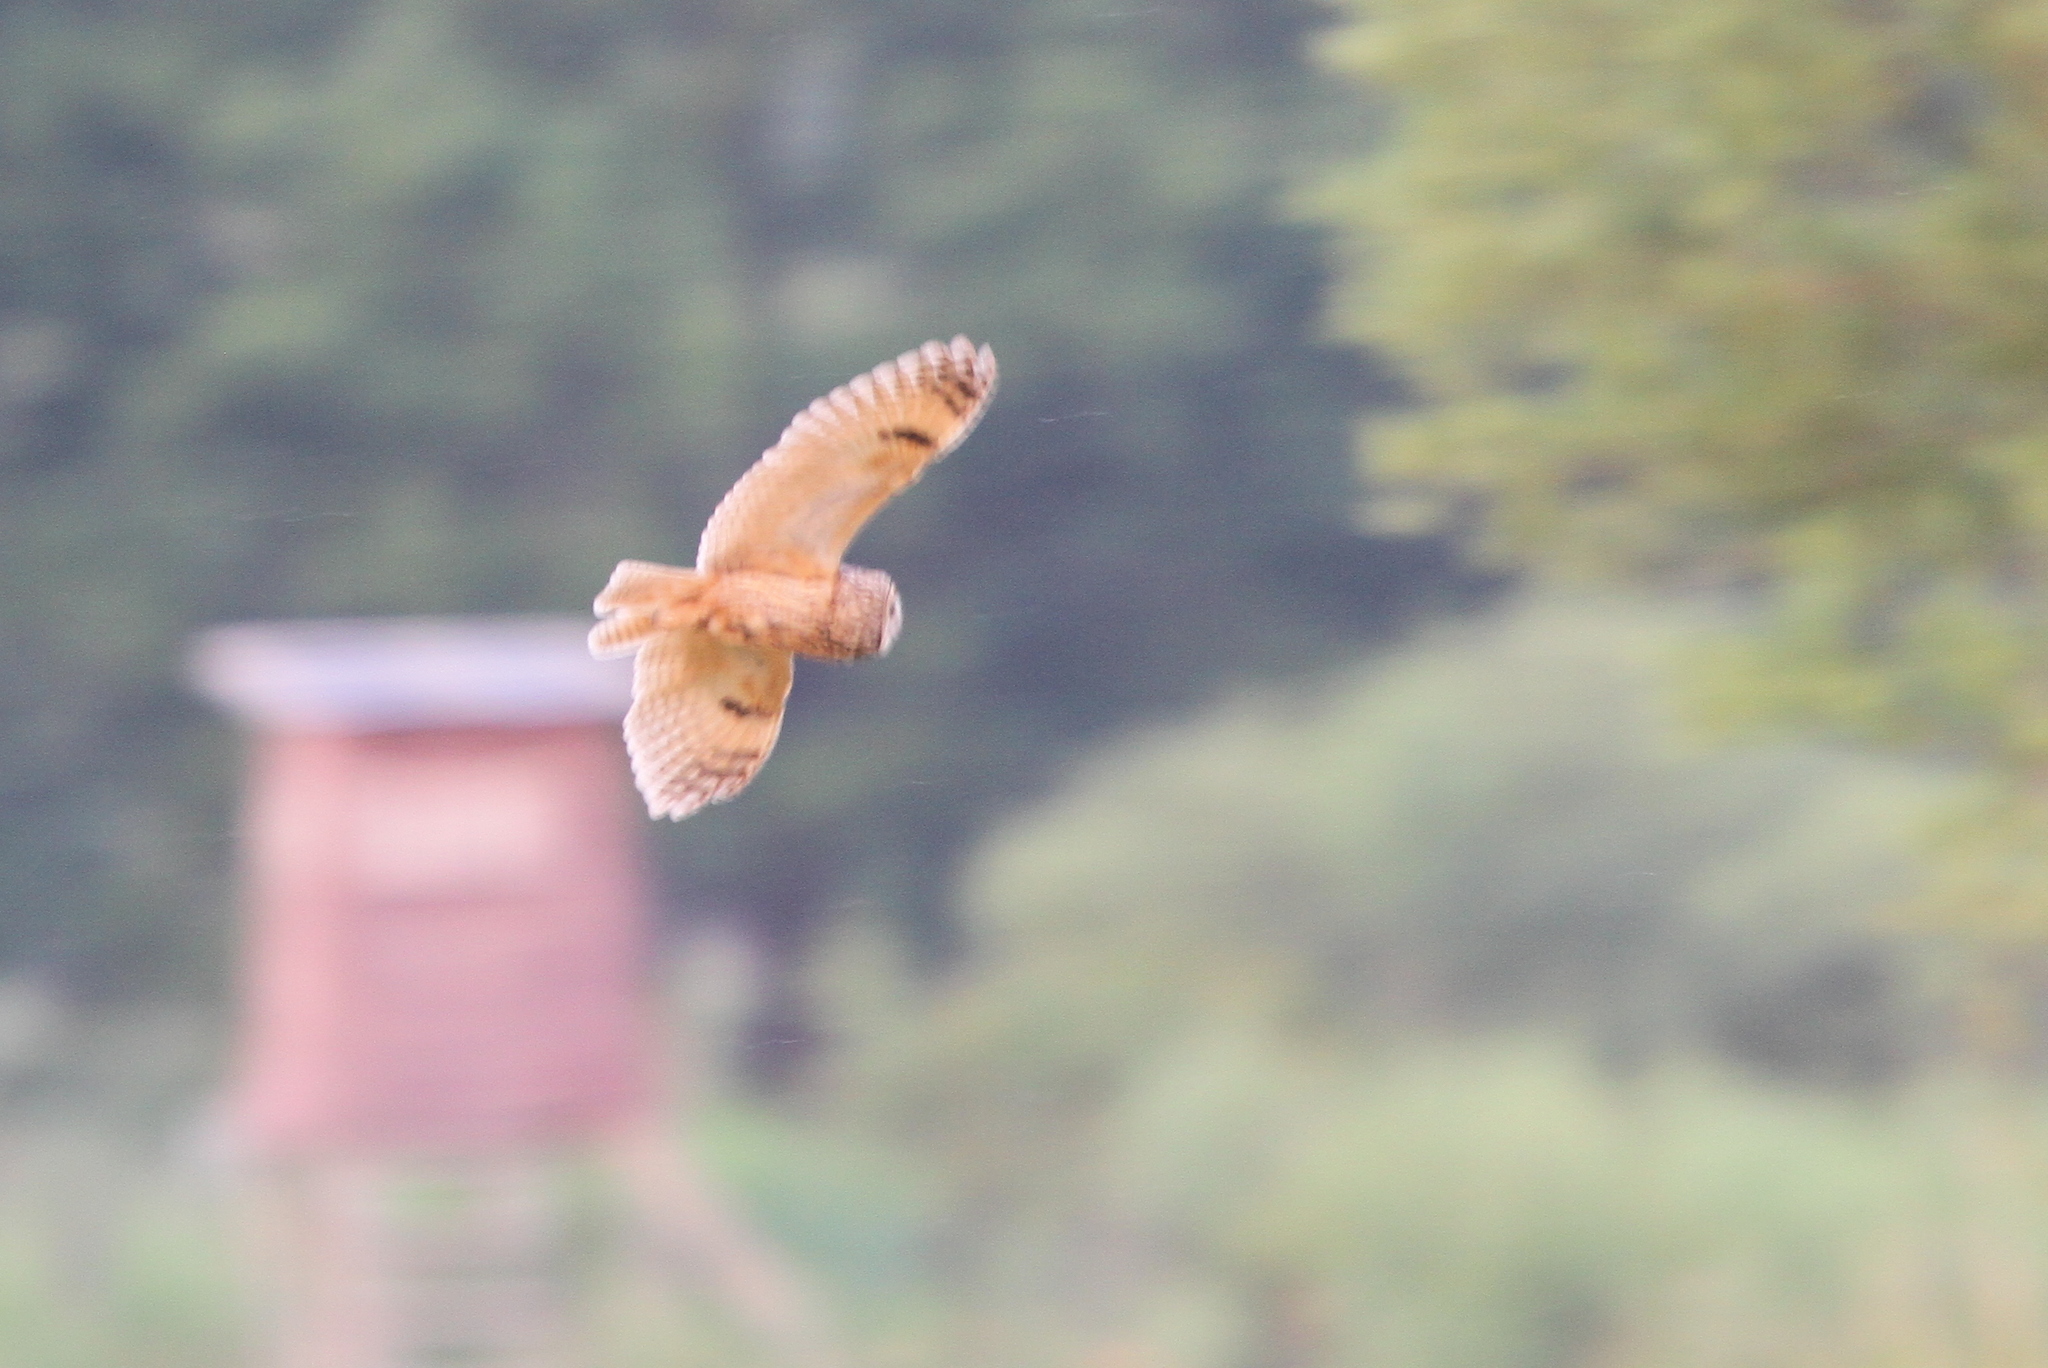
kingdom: Animalia
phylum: Chordata
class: Aves
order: Strigiformes
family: Strigidae
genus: Asio
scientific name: Asio otus
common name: Long-eared owl
